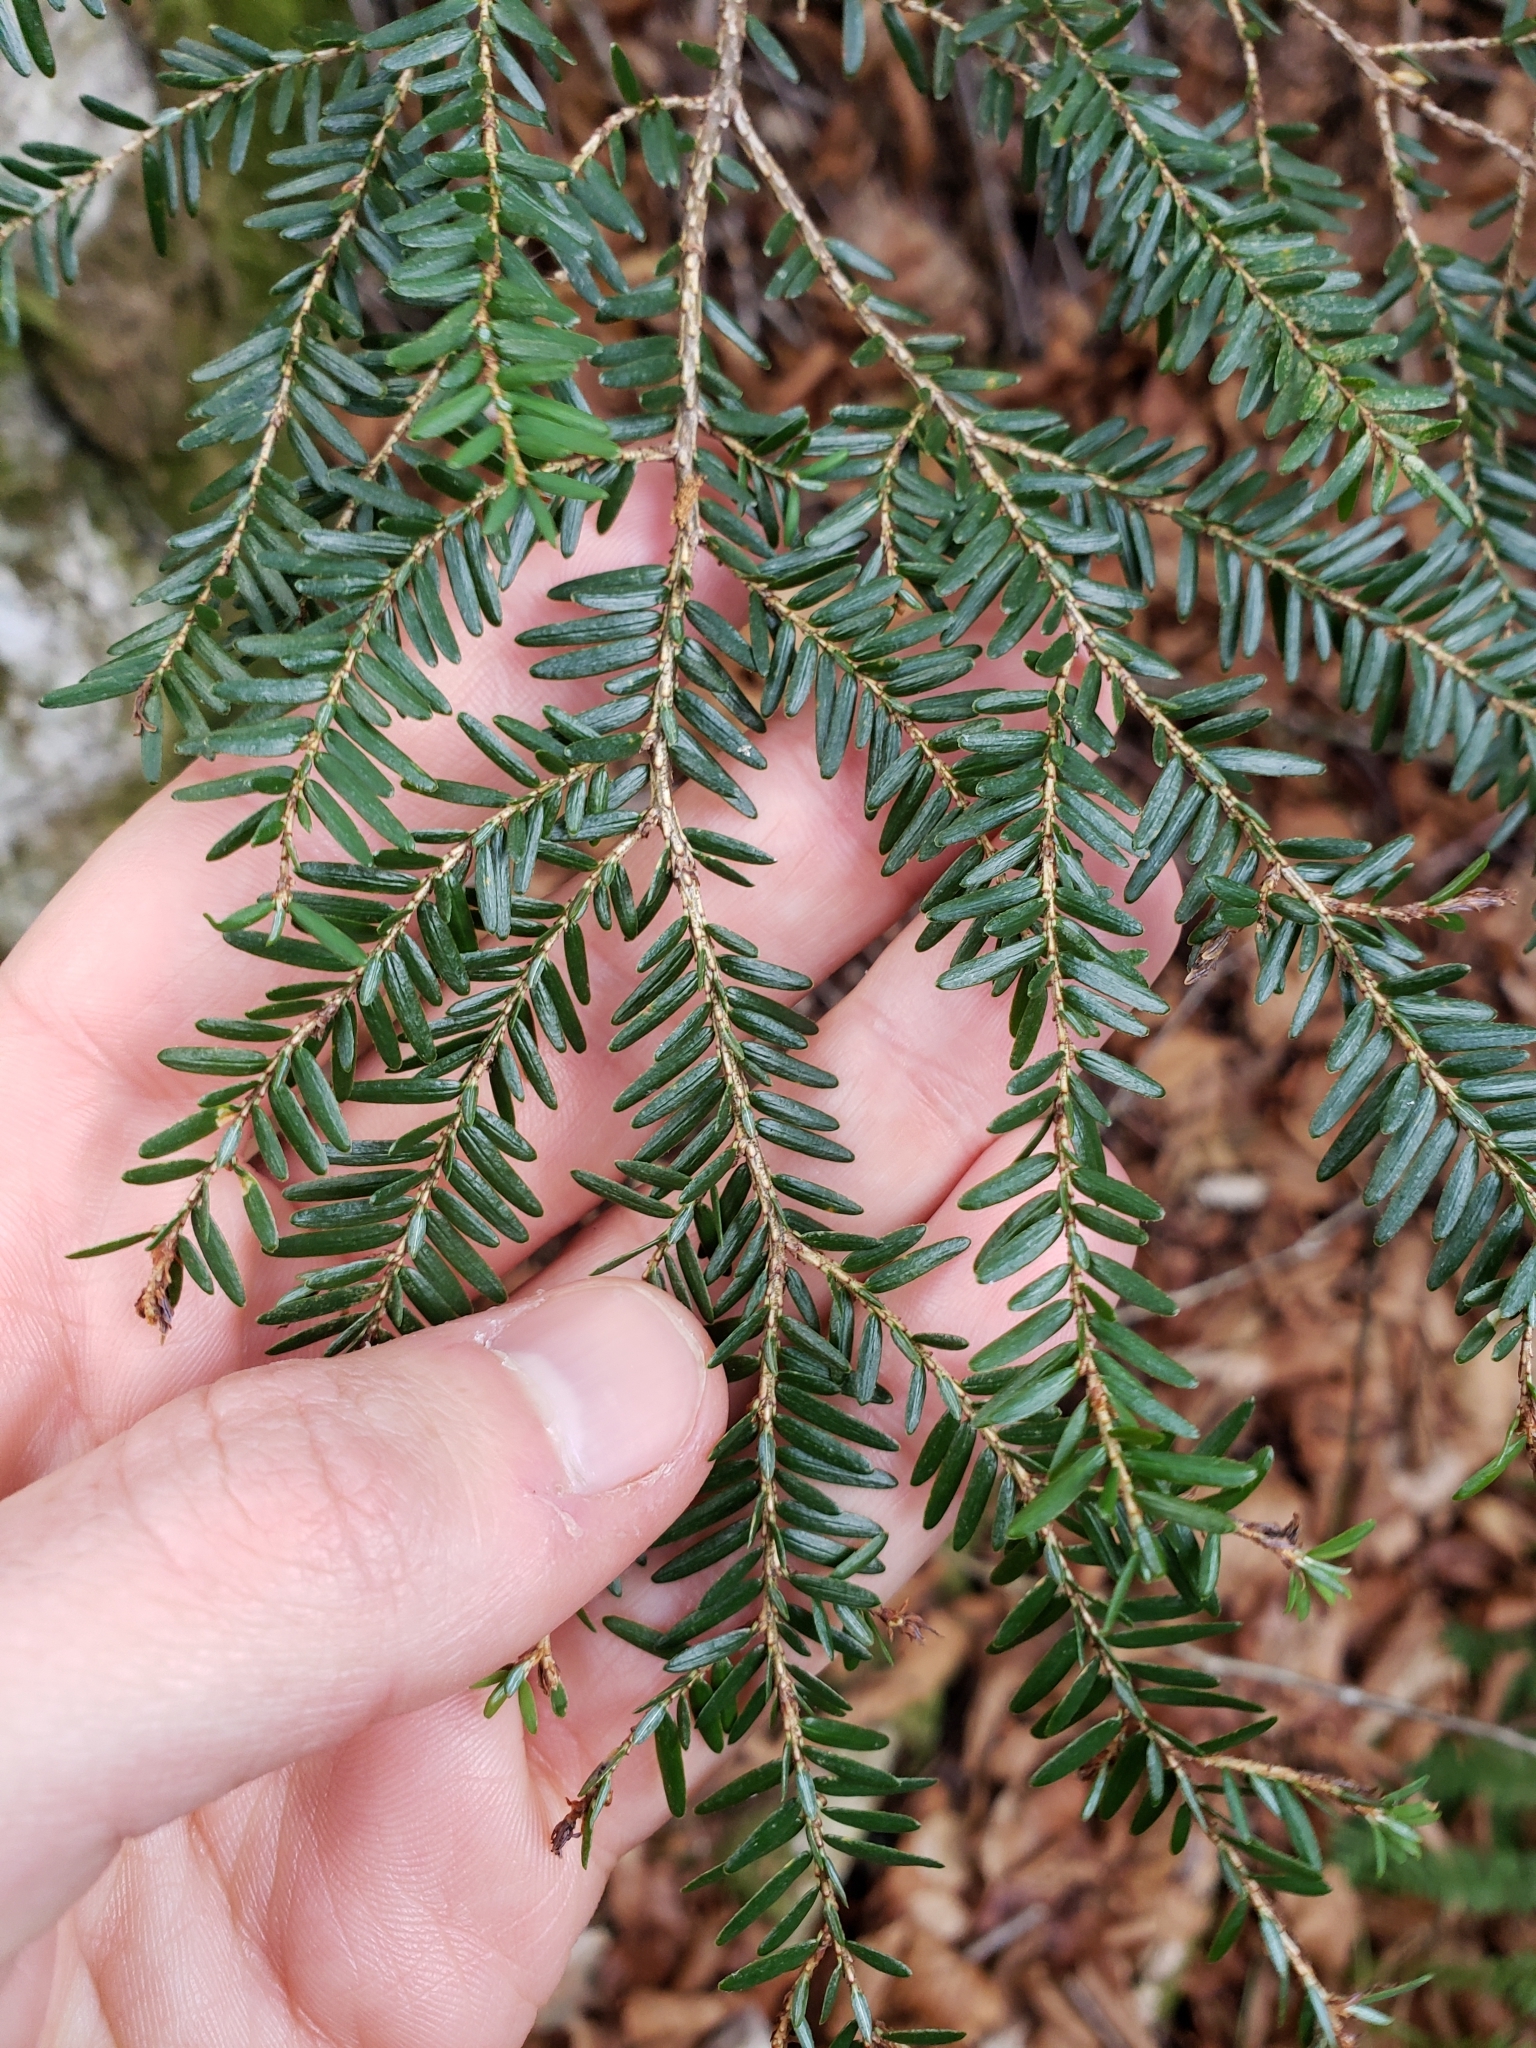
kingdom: Plantae
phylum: Tracheophyta
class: Pinopsida
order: Pinales
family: Pinaceae
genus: Tsuga
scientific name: Tsuga canadensis
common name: Eastern hemlock
